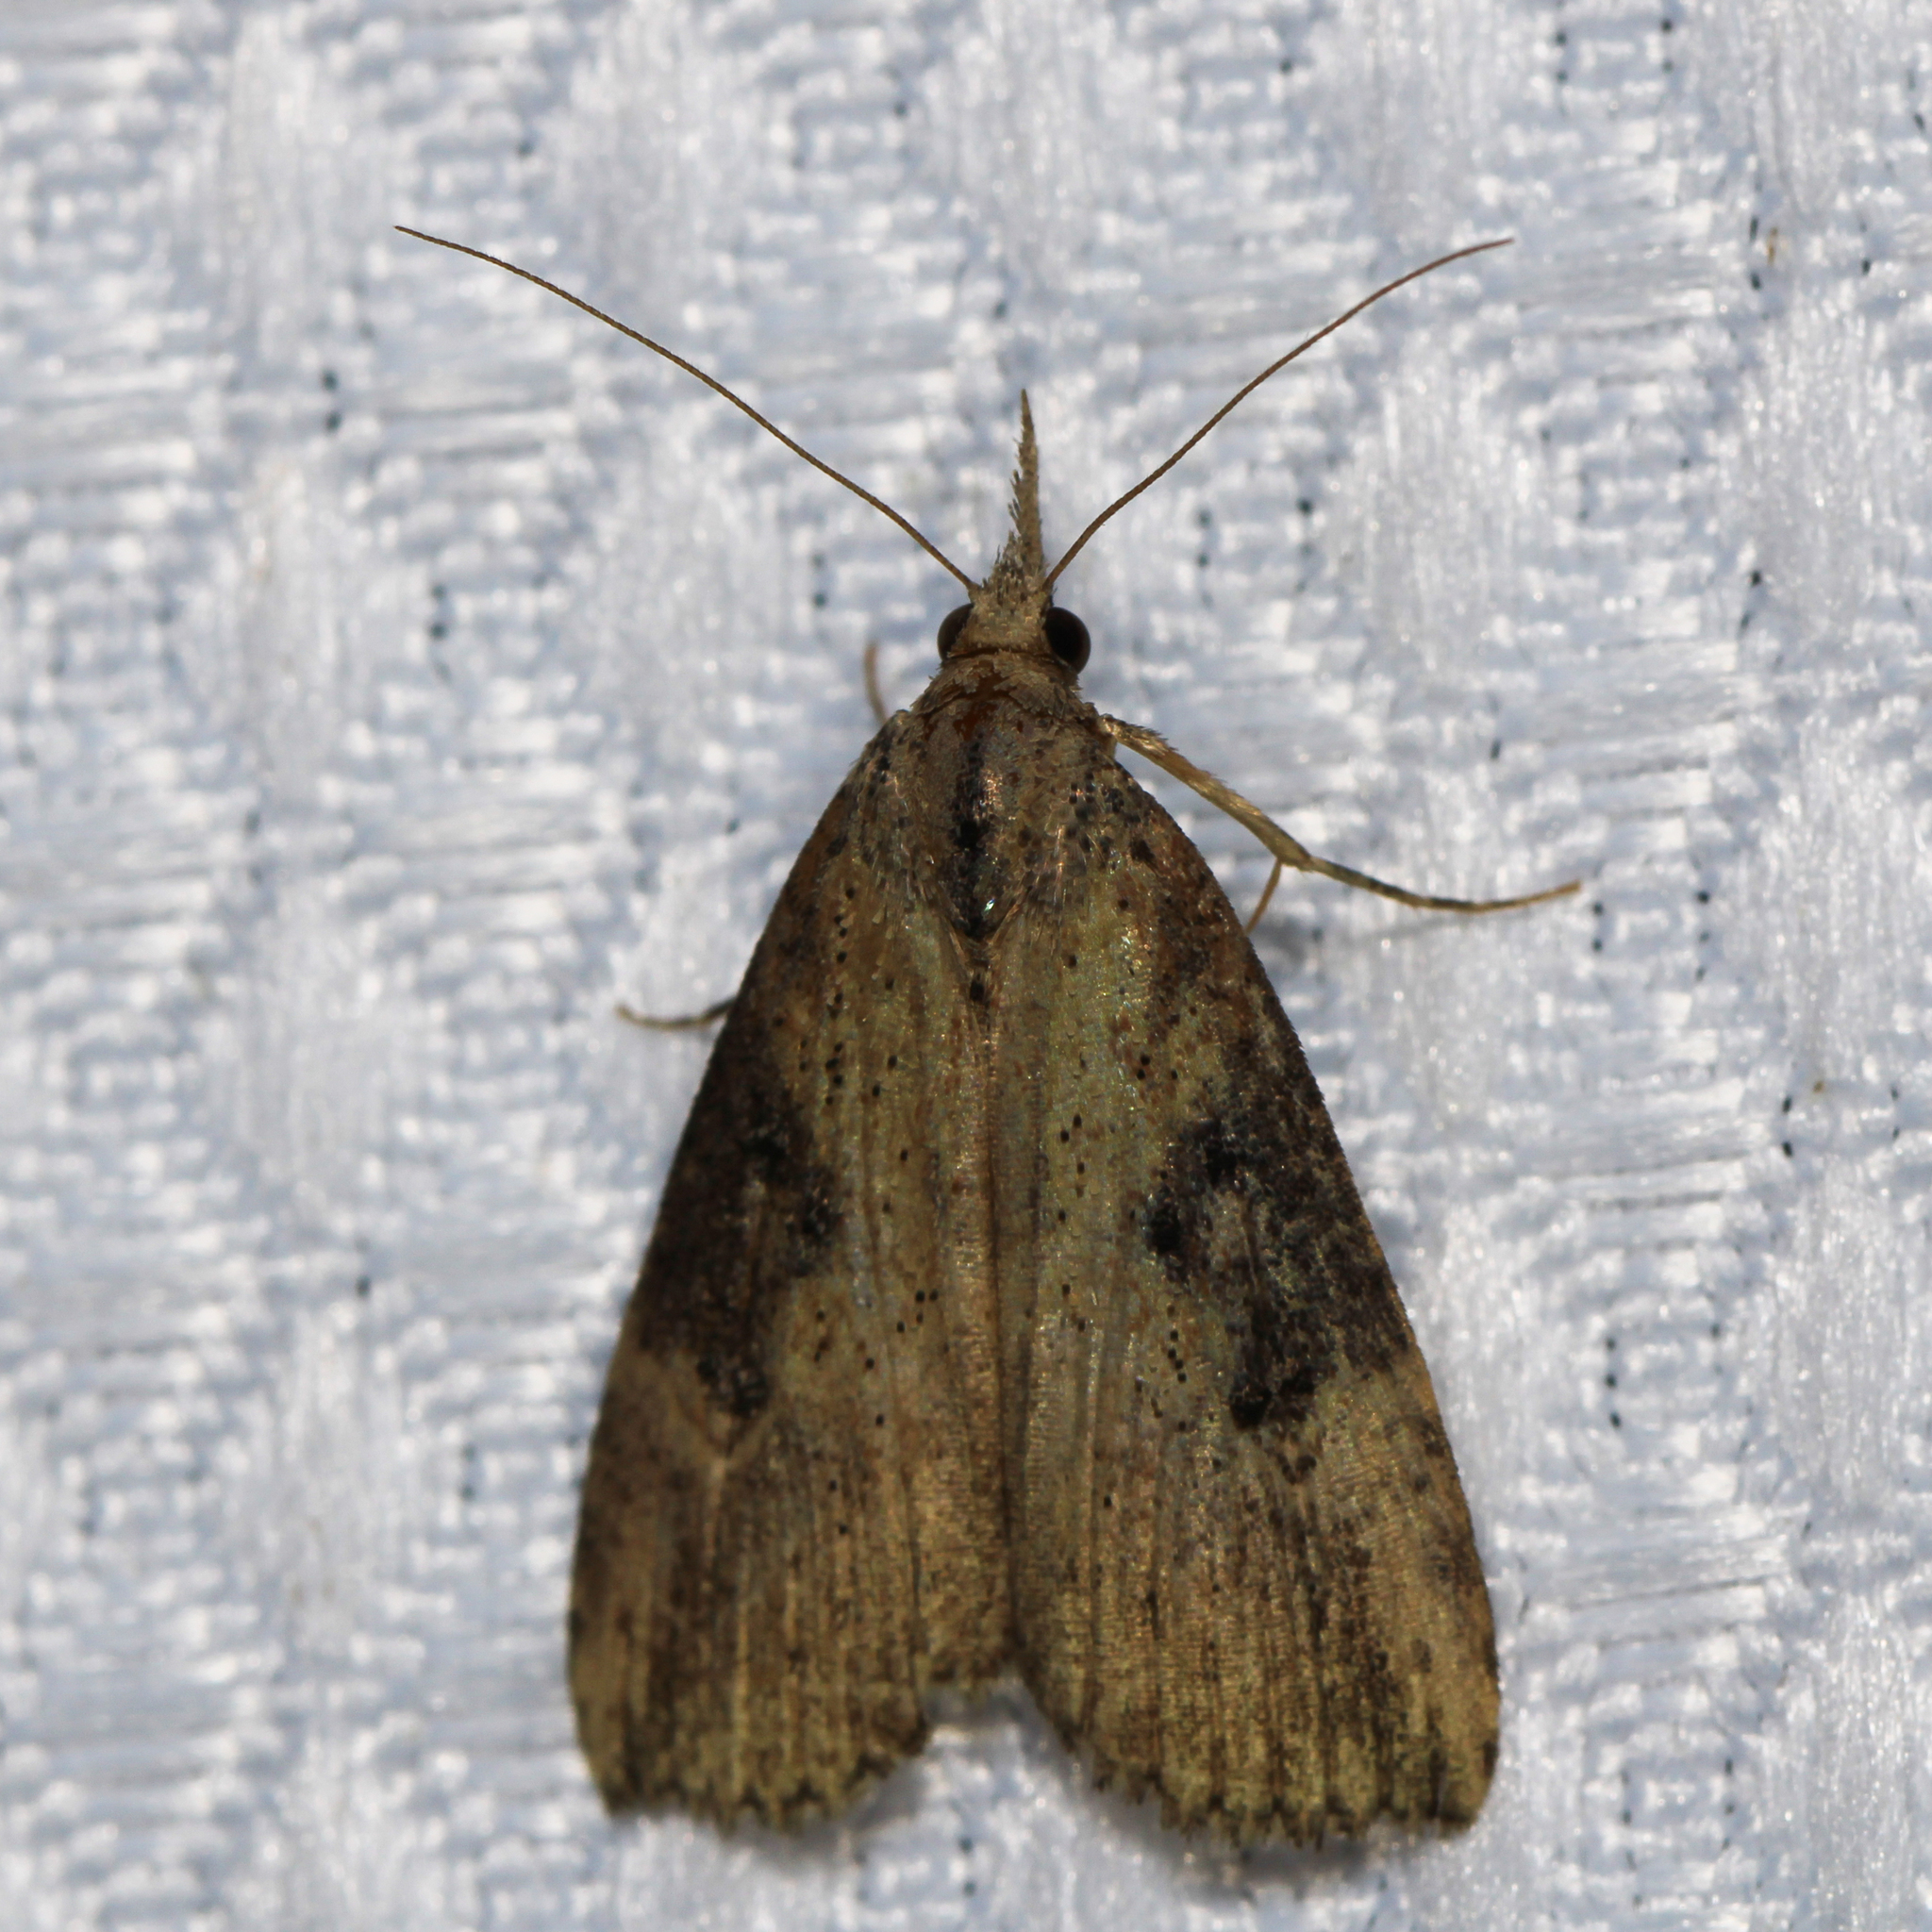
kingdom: Animalia
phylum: Arthropoda
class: Insecta
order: Lepidoptera
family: Erebidae
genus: Hypena
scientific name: Hypena humuli
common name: Hop vine snout
